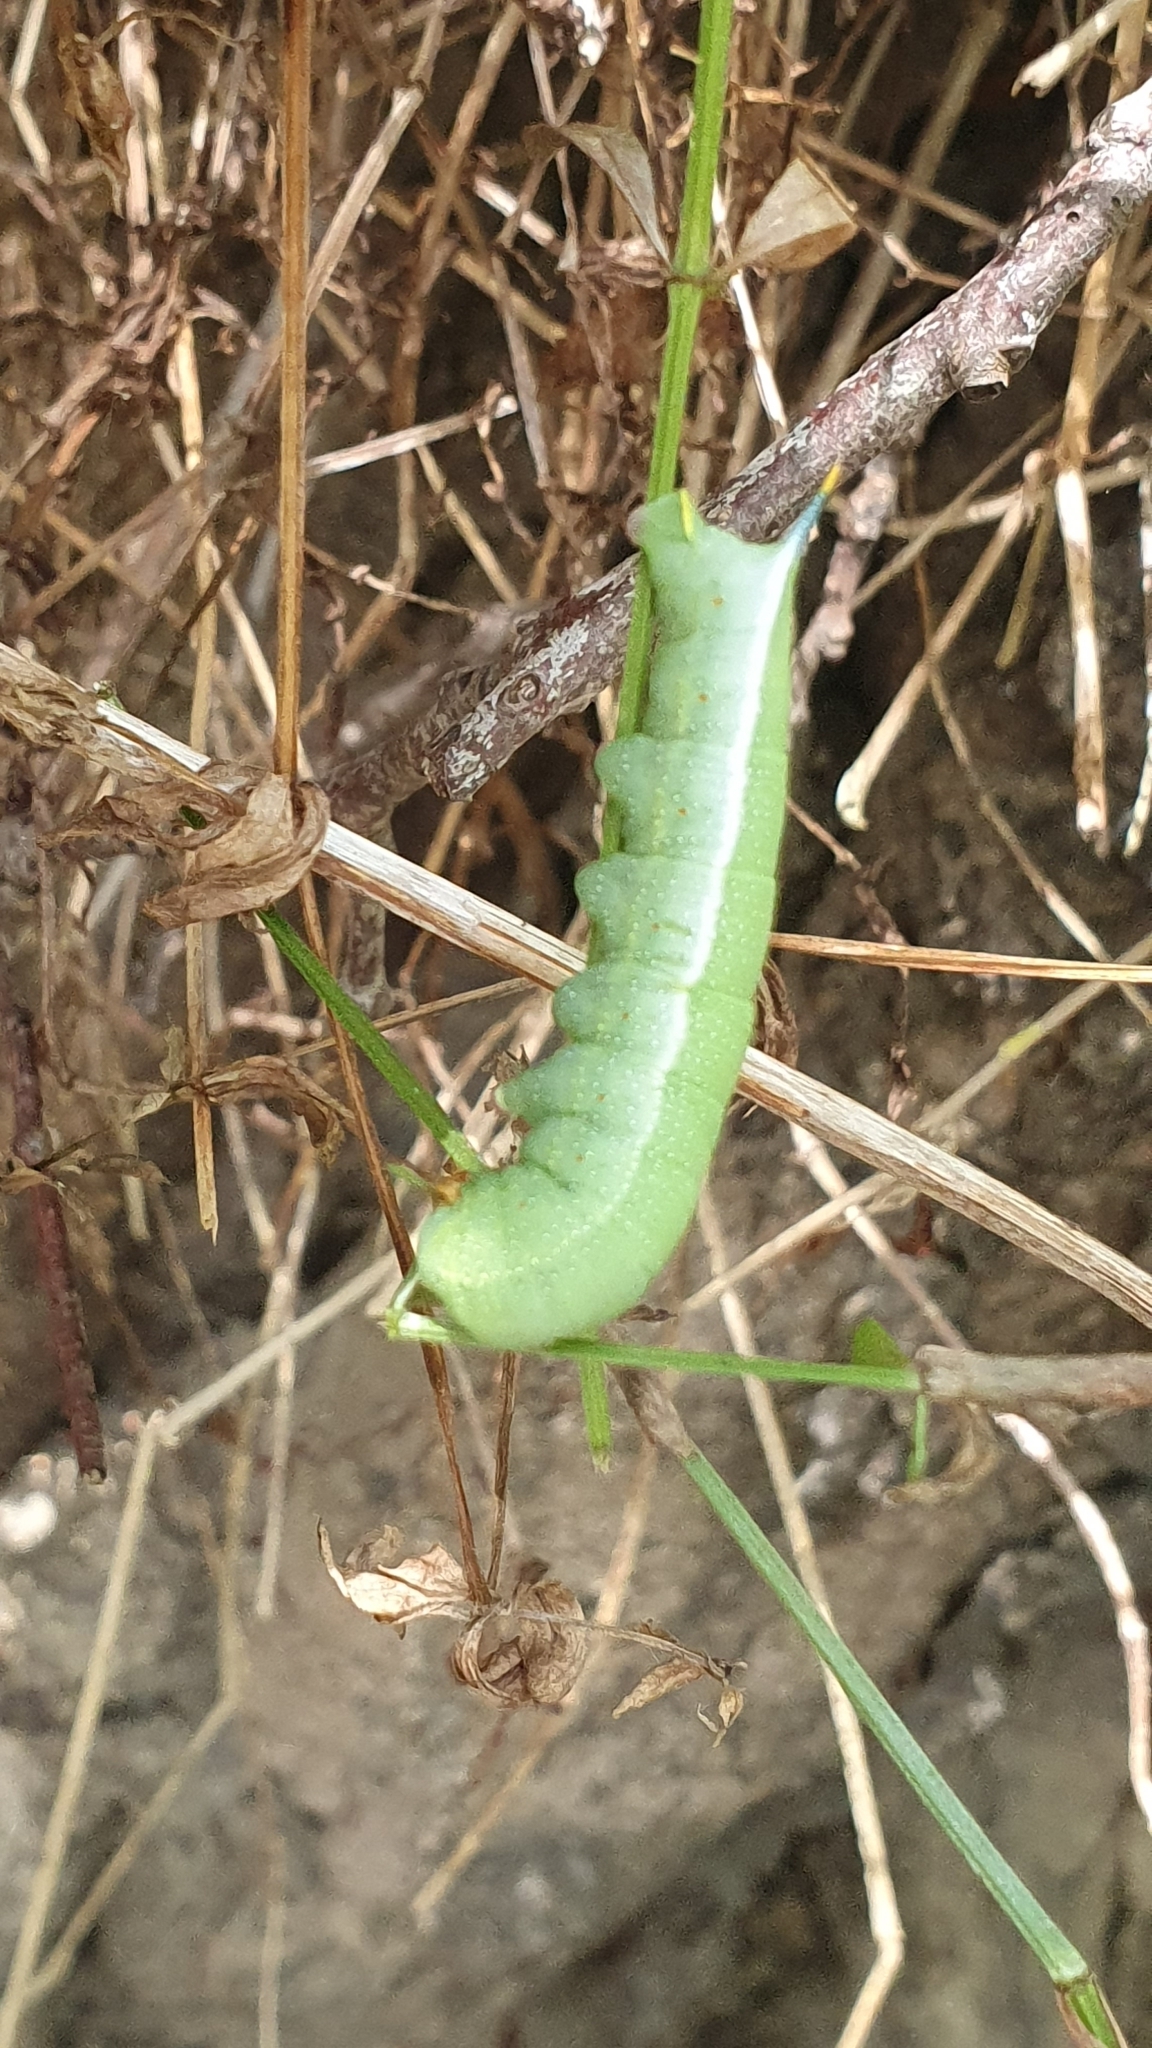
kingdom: Animalia
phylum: Arthropoda
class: Insecta
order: Lepidoptera
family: Sphingidae
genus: Macroglossum
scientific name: Macroglossum stellatarum
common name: Humming-bird hawk-moth
